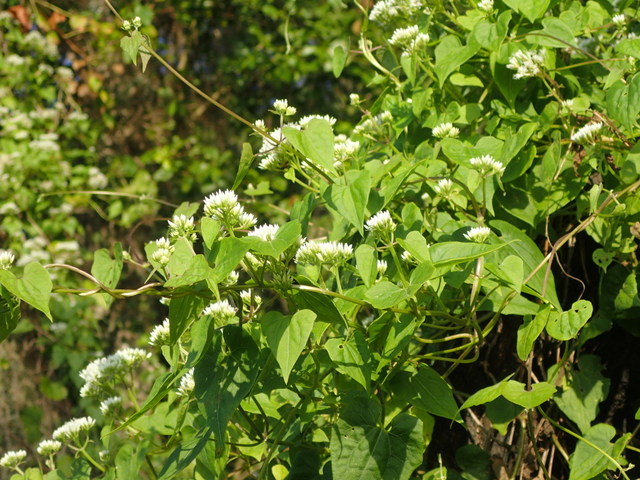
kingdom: Plantae
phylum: Tracheophyta
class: Magnoliopsida
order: Asterales
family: Asteraceae
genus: Mikania
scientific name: Mikania scandens
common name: Climbing hempvine
